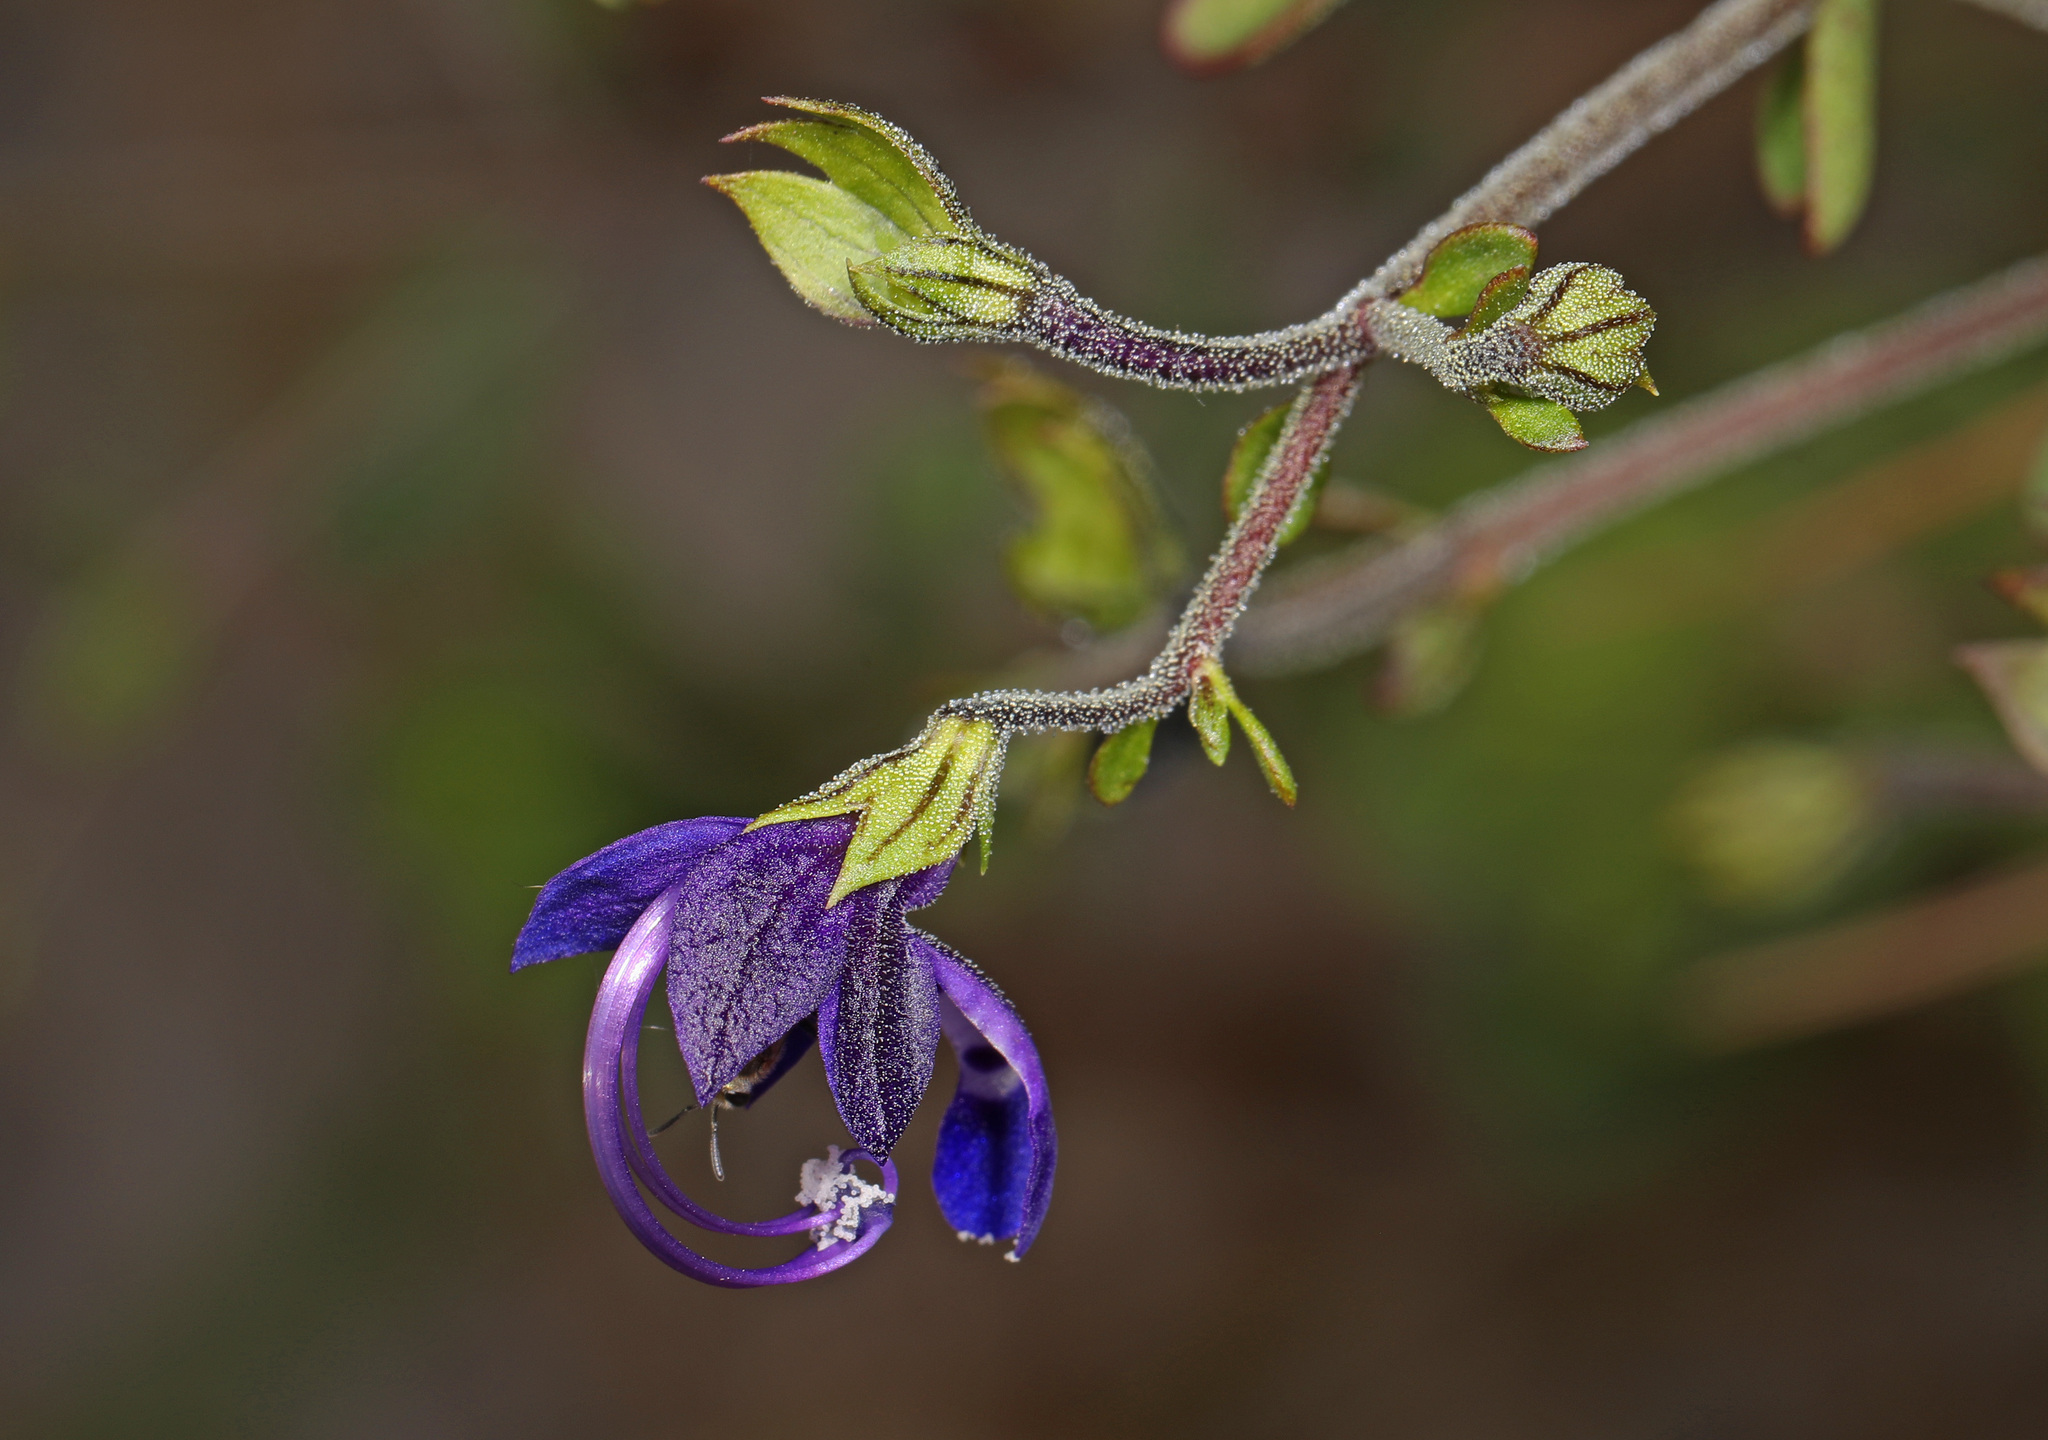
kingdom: Plantae
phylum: Tracheophyta
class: Magnoliopsida
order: Lamiales
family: Lamiaceae
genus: Trichostema
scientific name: Trichostema bridgesii-orzellii
